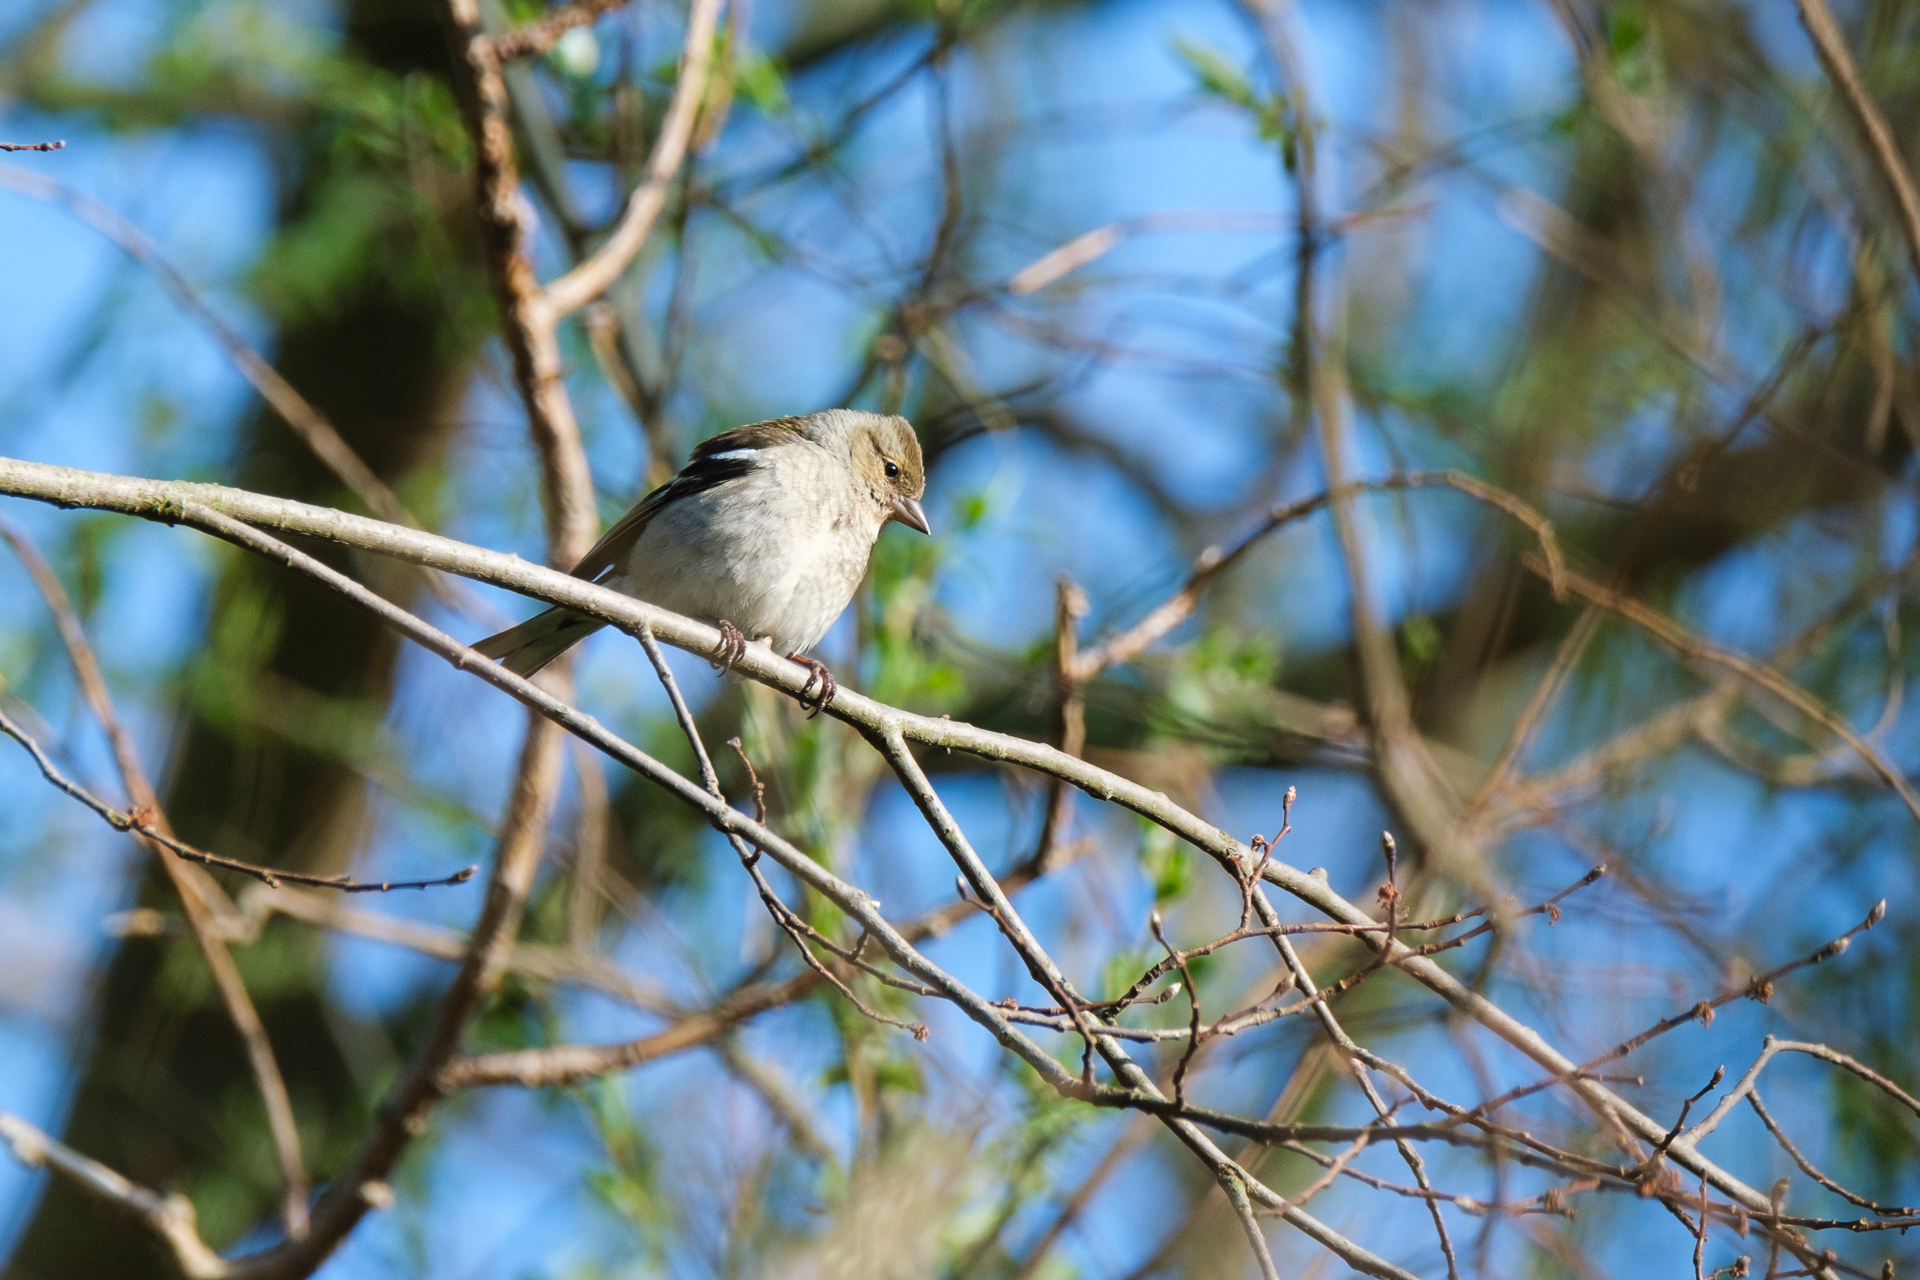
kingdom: Animalia
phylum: Chordata
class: Aves
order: Passeriformes
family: Fringillidae
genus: Fringilla
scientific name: Fringilla coelebs
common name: Common chaffinch
